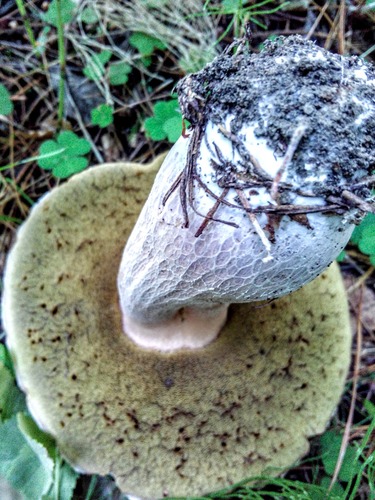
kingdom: Fungi
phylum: Basidiomycota
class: Agaricomycetes
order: Boletales
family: Boletaceae
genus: Boletus
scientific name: Boletus
